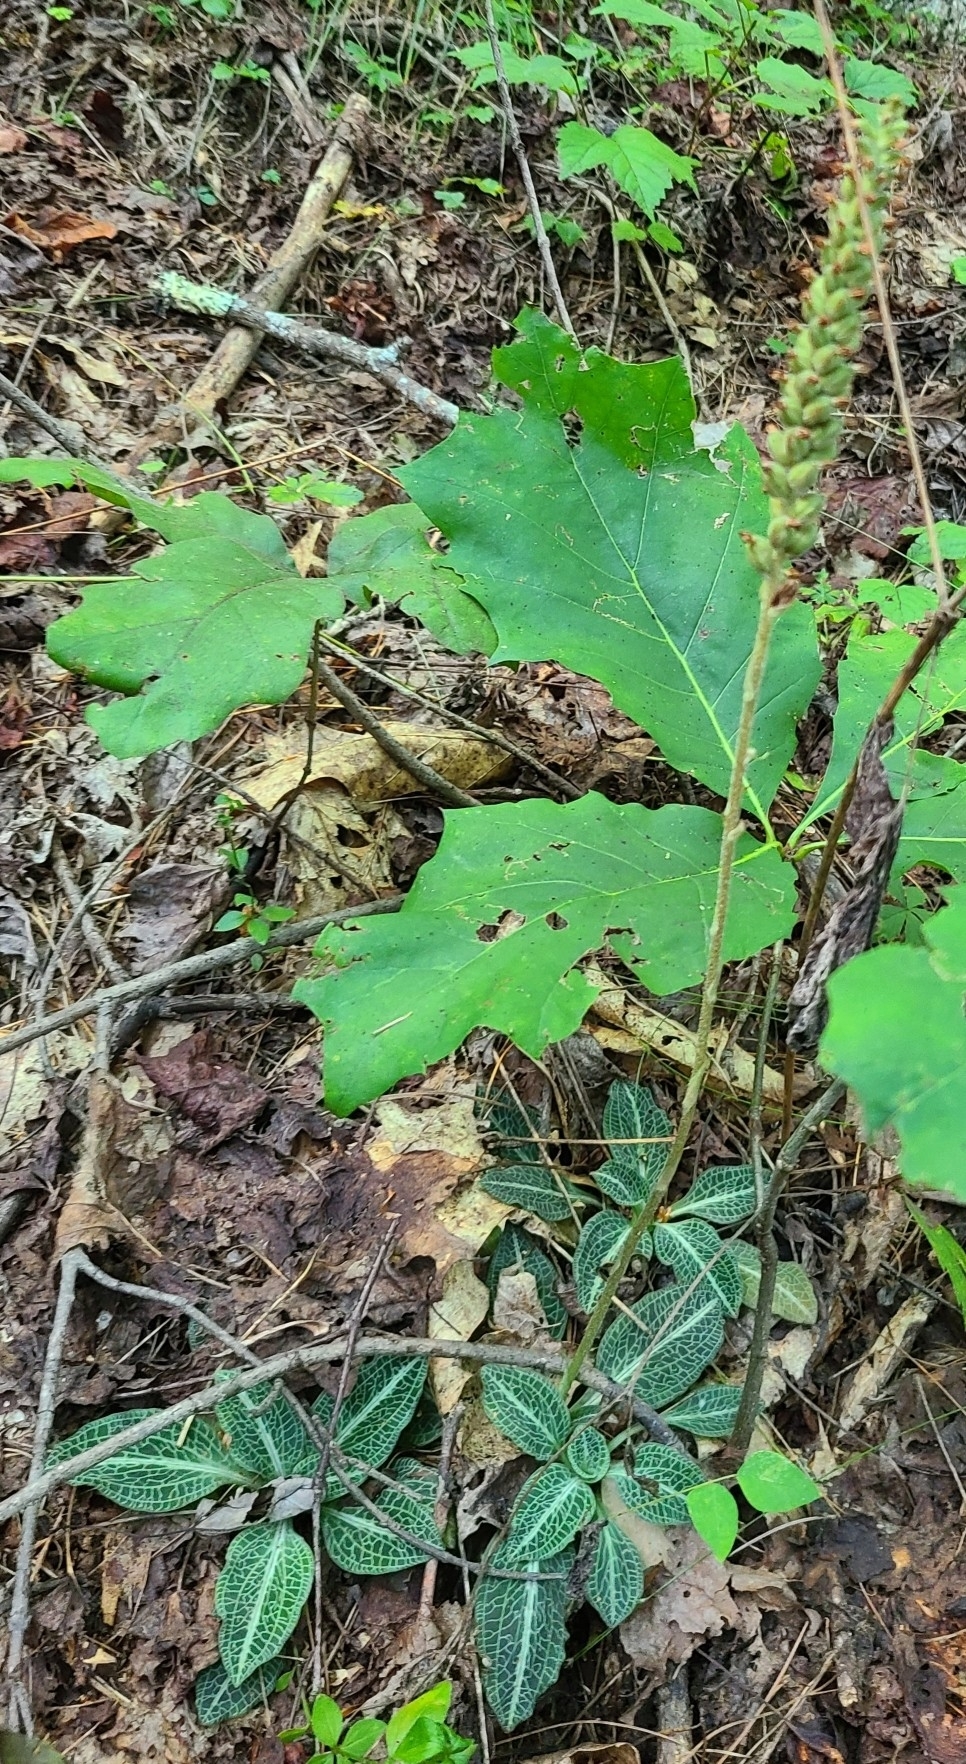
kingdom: Plantae
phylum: Tracheophyta
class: Liliopsida
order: Asparagales
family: Orchidaceae
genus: Goodyera
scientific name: Goodyera pubescens
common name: Downy rattlesnake-plantain
